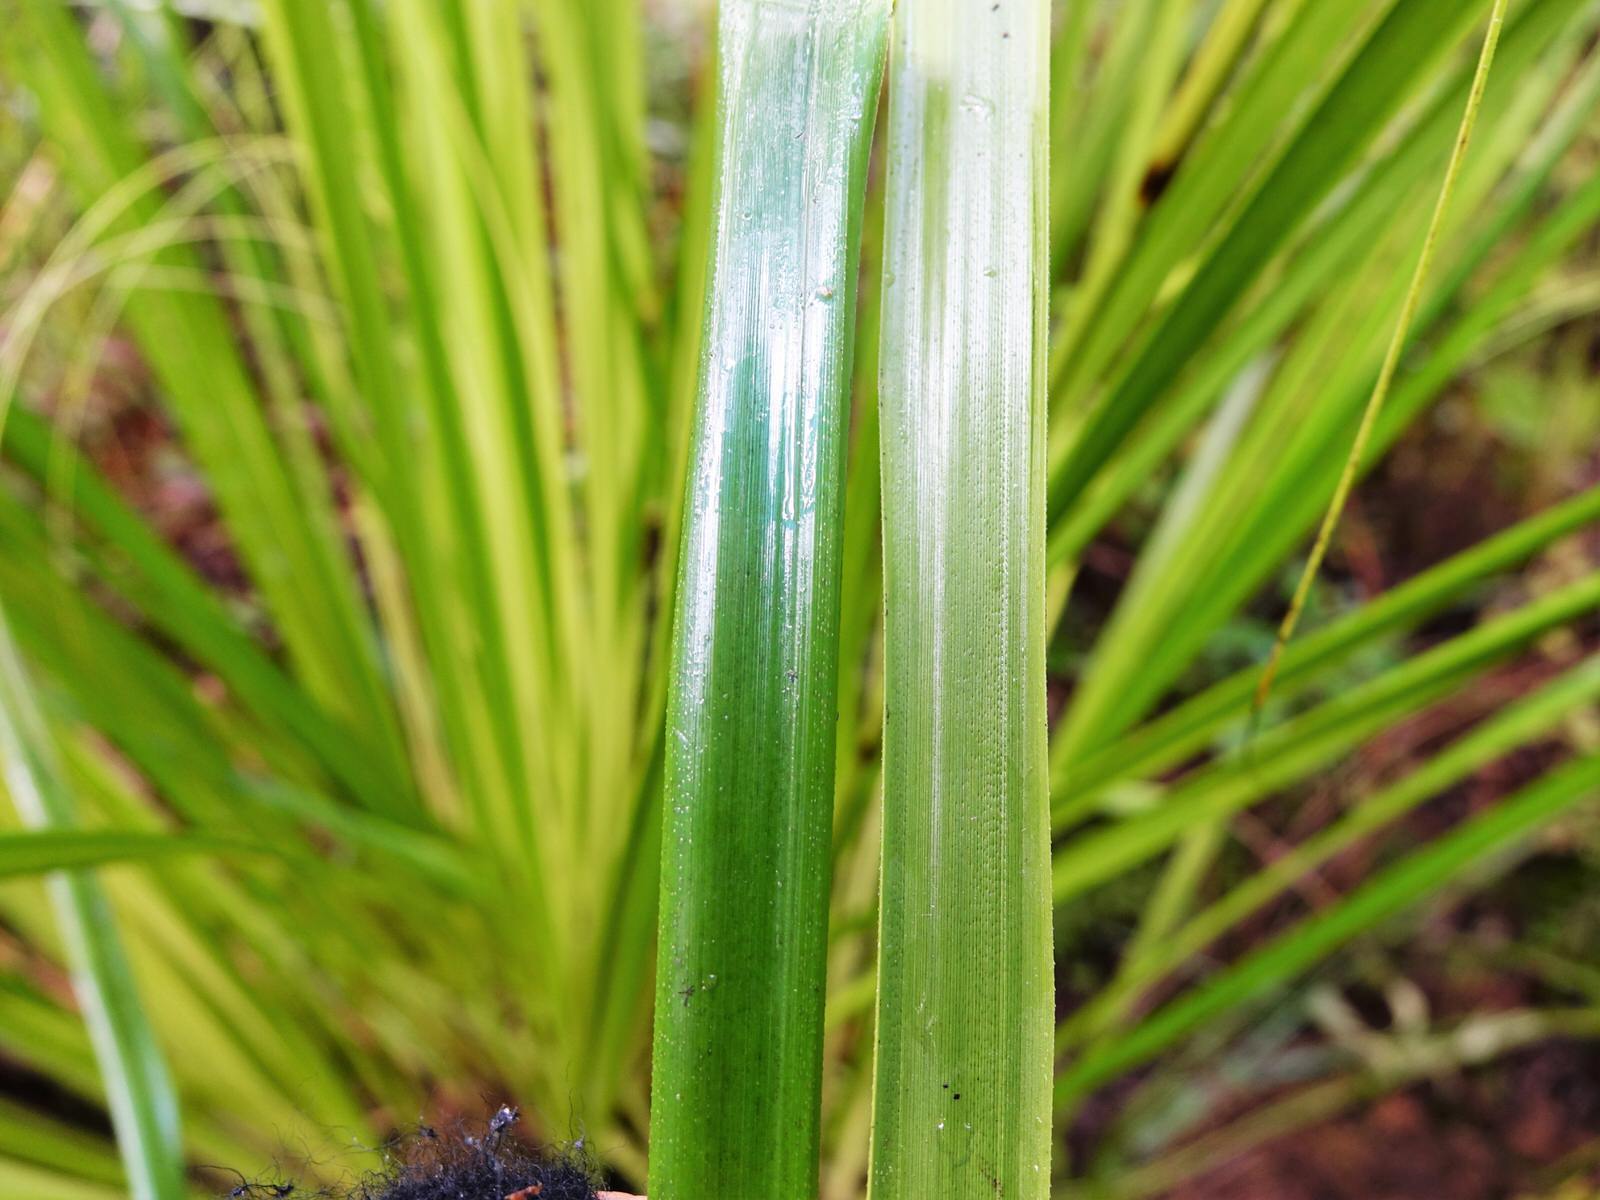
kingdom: Plantae
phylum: Tracheophyta
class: Liliopsida
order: Poales
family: Cyperaceae
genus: Gahnia
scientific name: Gahnia xanthocarpa
